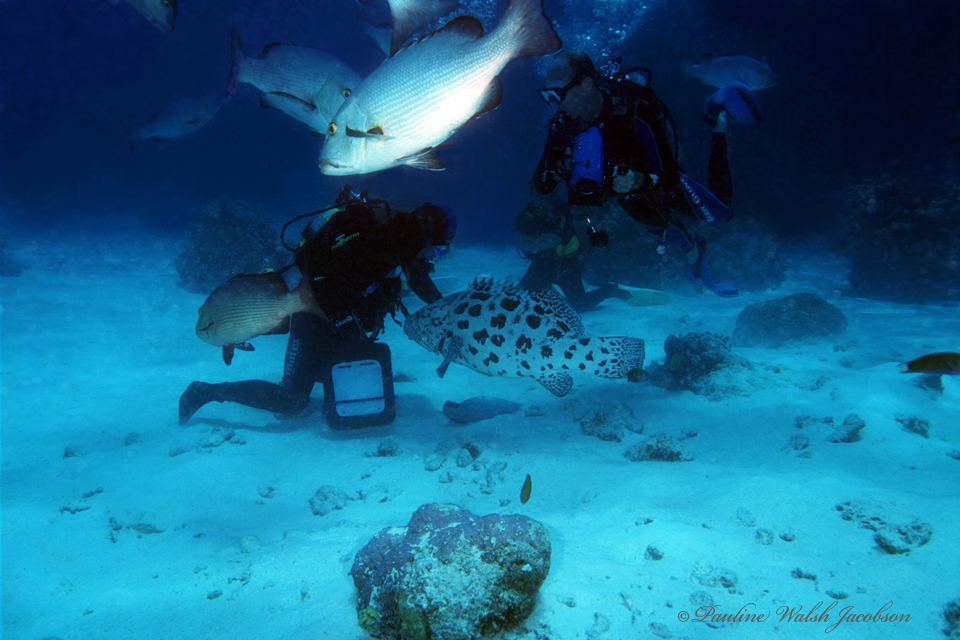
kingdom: Animalia
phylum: Chordata
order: Perciformes
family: Serranidae
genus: Epinephelus
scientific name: Epinephelus tukula
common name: Potato cod
